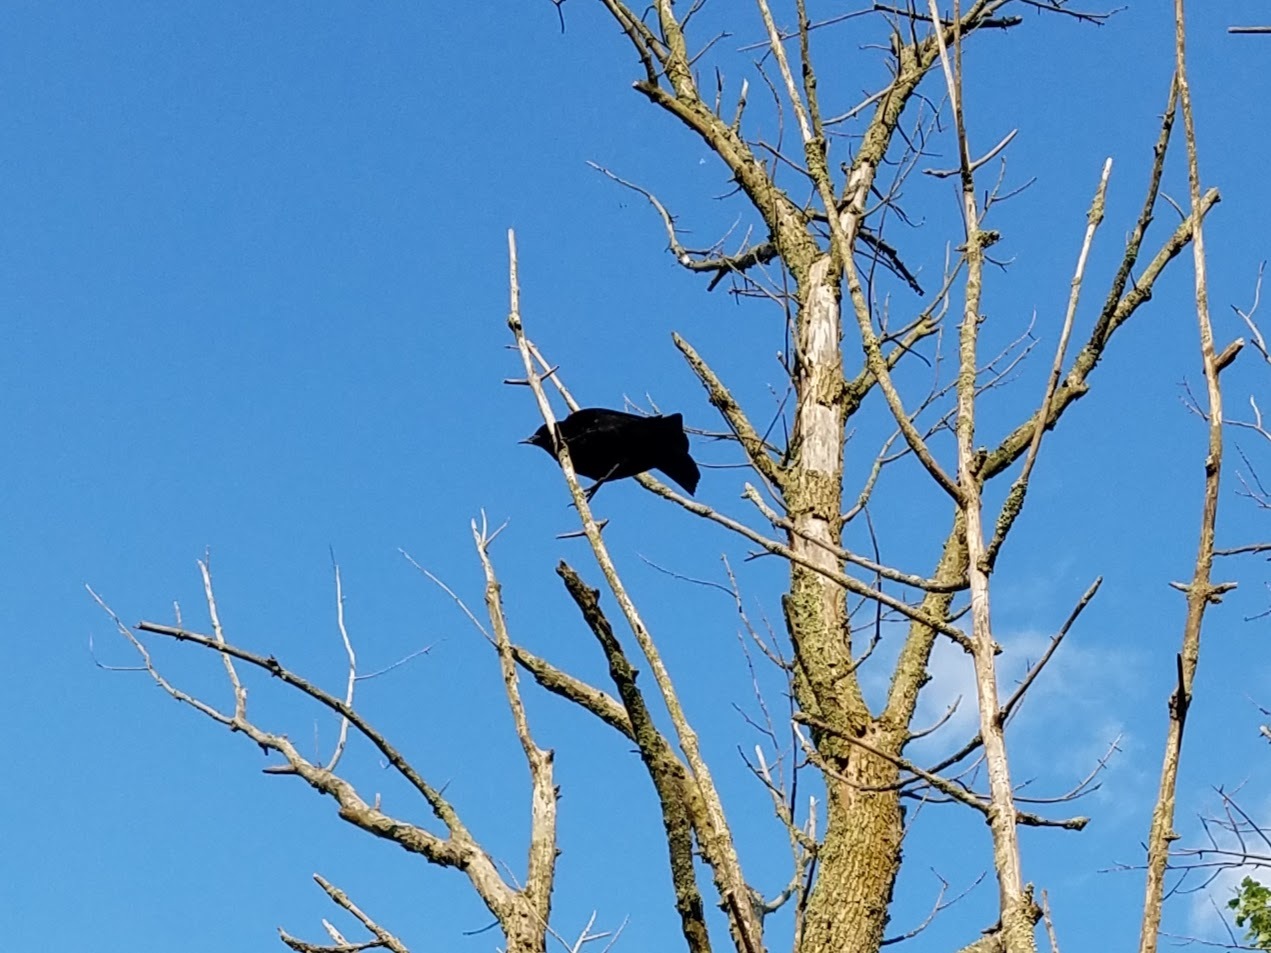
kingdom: Animalia
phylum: Chordata
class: Aves
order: Passeriformes
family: Icteridae
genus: Agelaius
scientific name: Agelaius phoeniceus
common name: Red-winged blackbird
